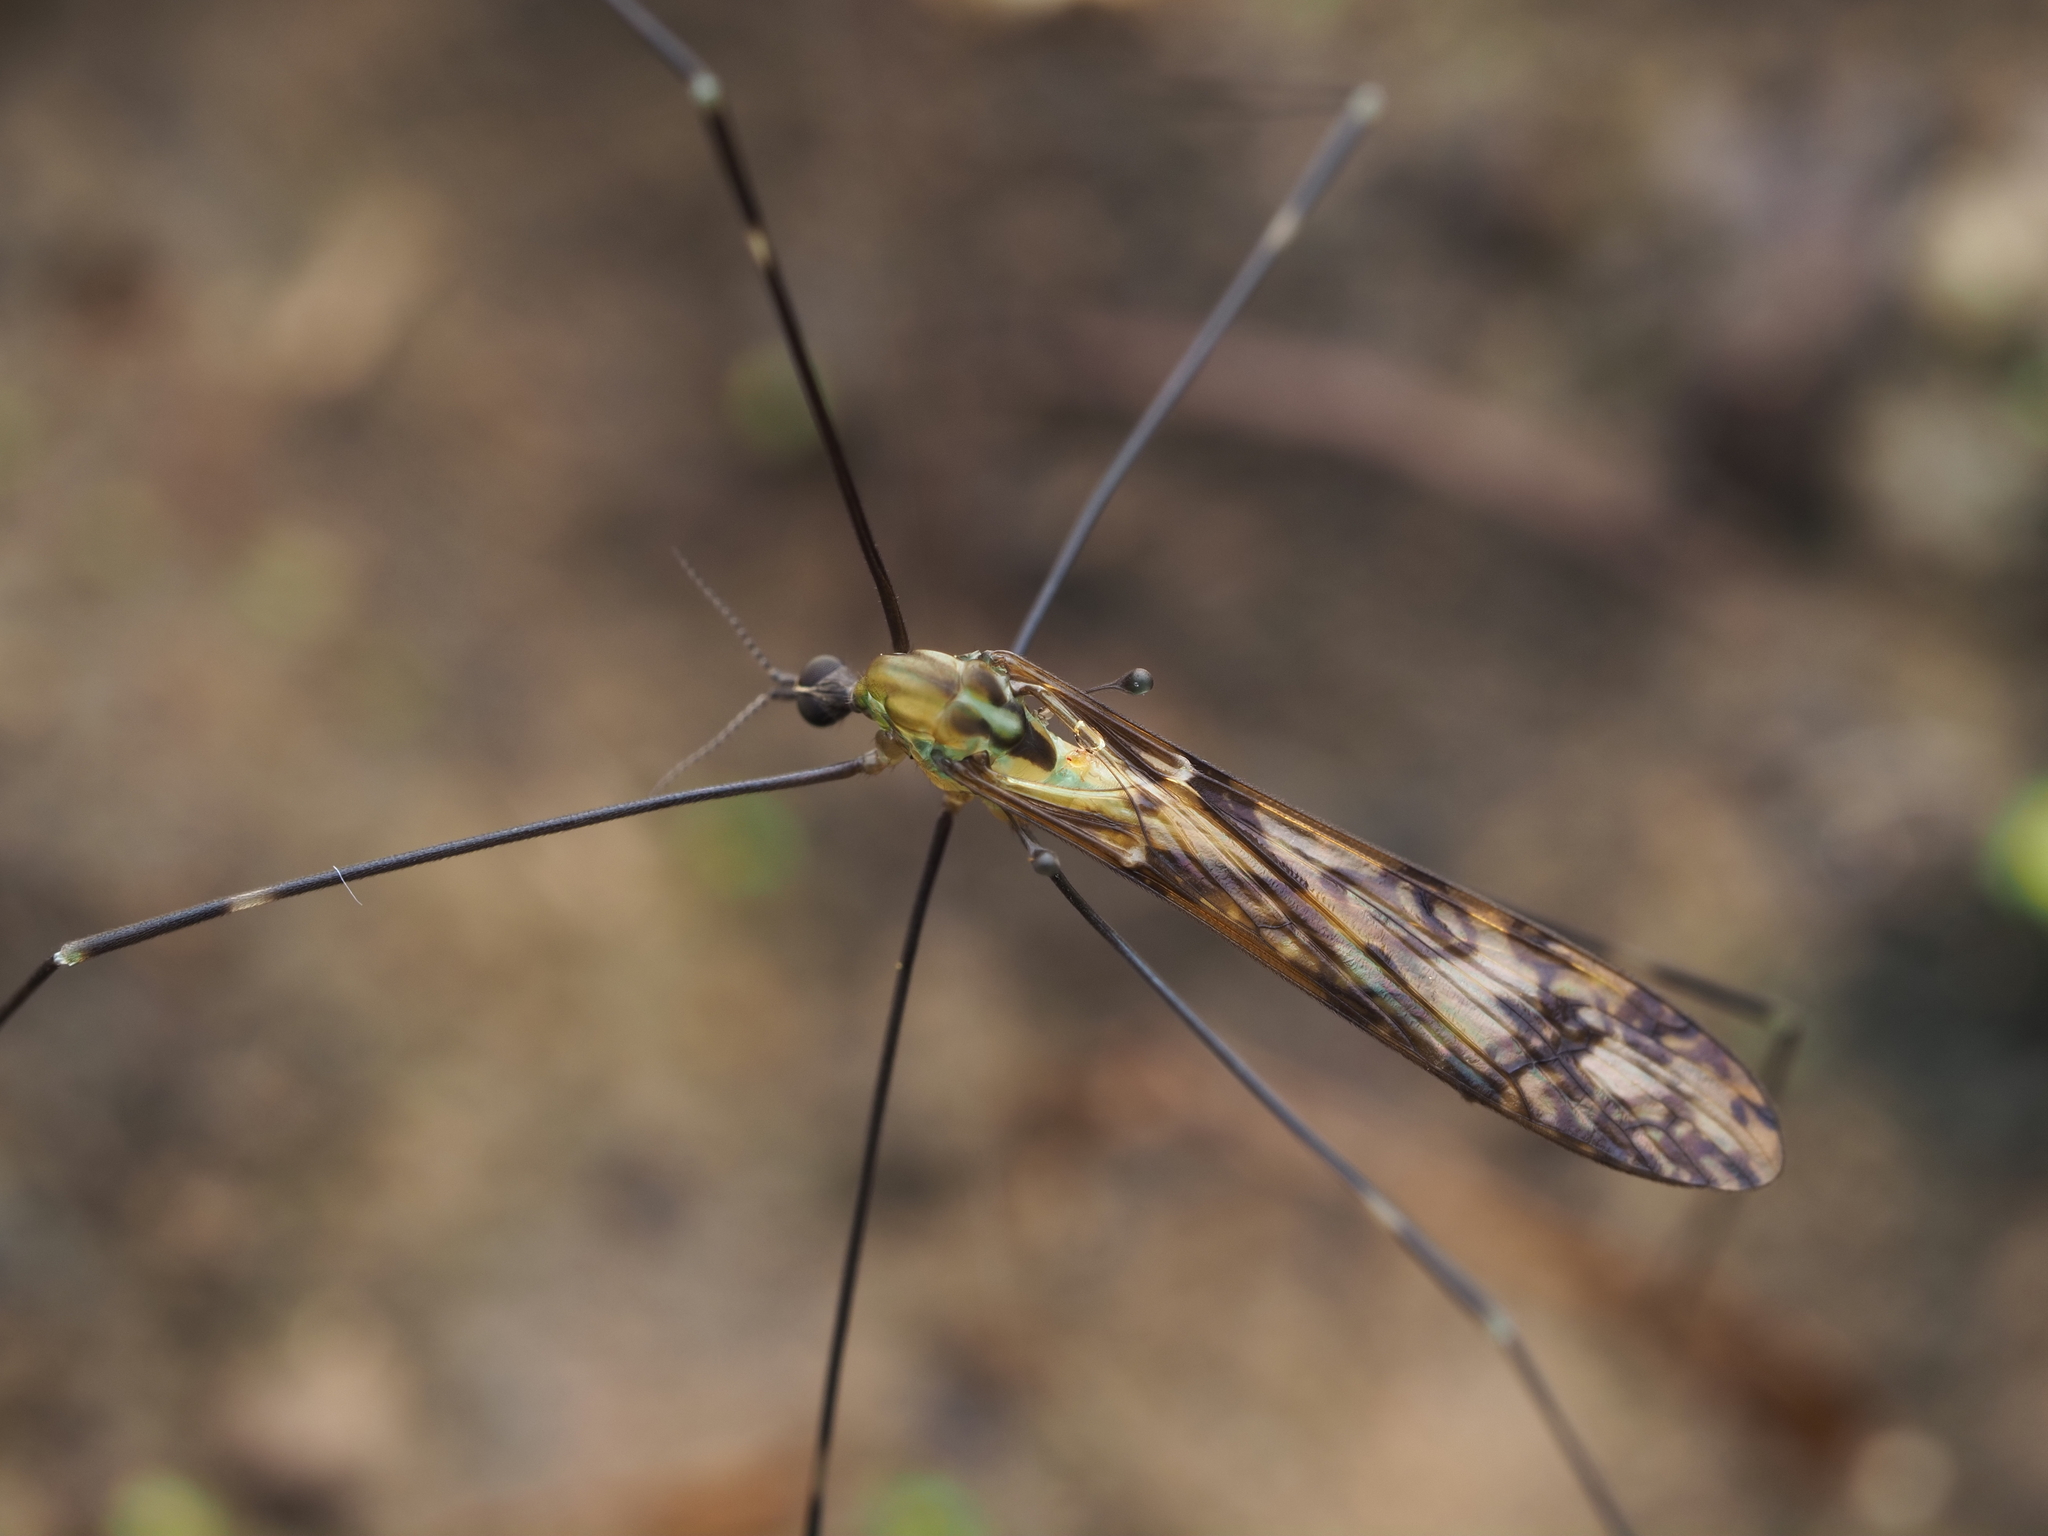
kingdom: Animalia
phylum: Arthropoda
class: Insecta
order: Diptera
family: Limoniidae
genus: Discobola
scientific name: Discobola tessellata
